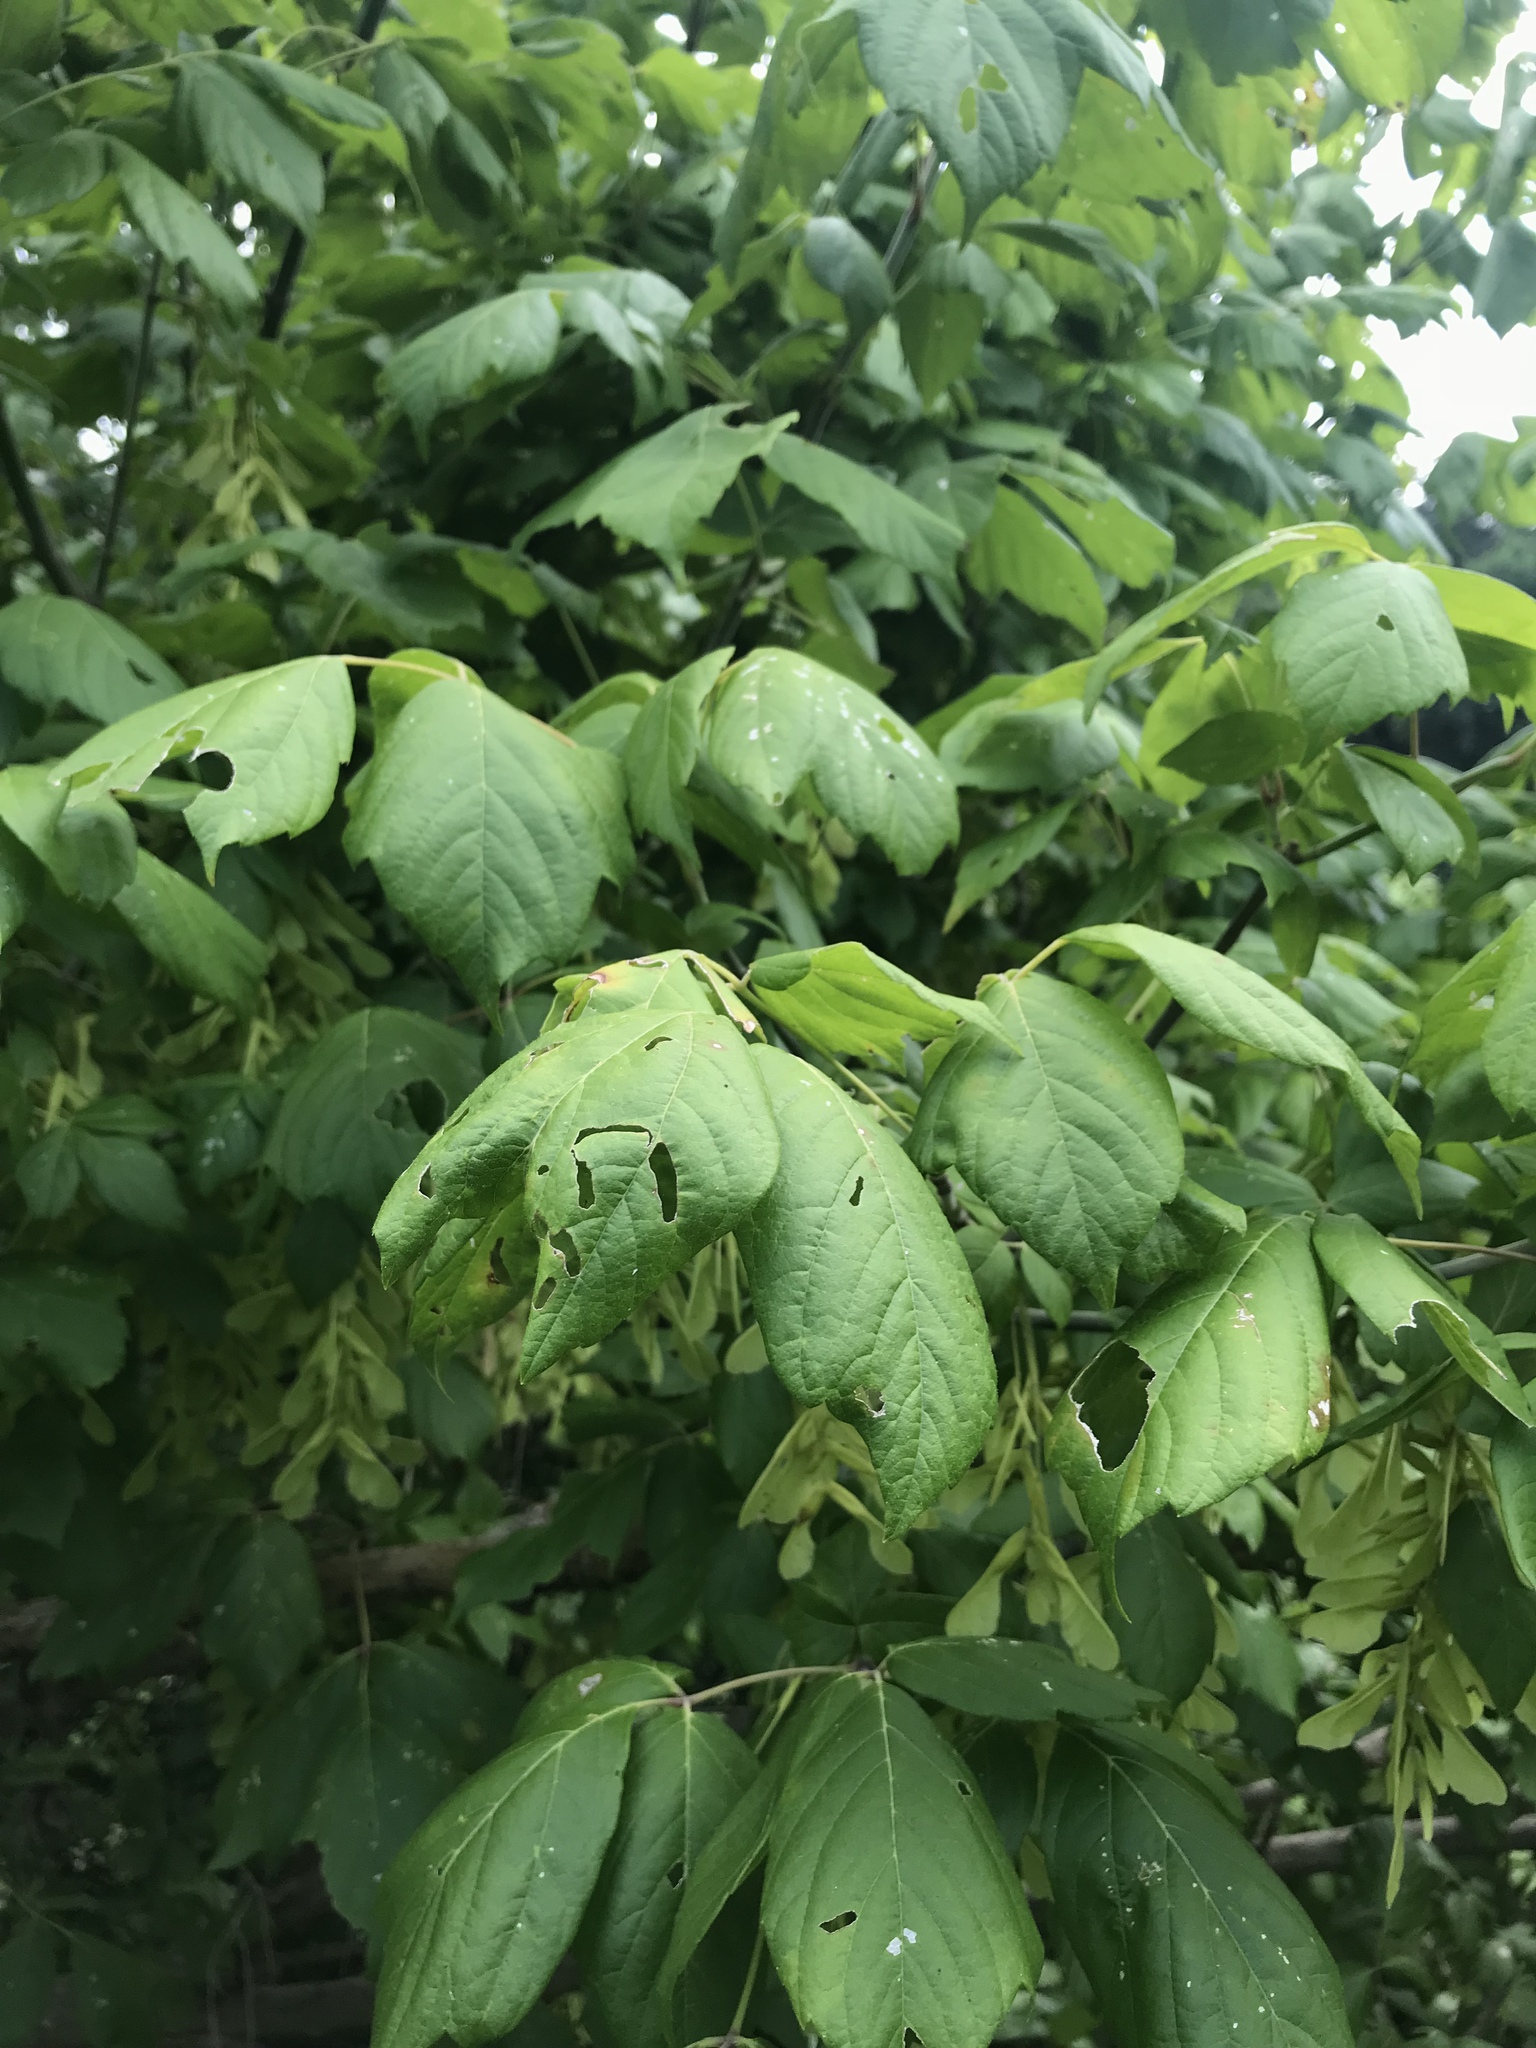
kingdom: Plantae
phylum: Tracheophyta
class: Magnoliopsida
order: Sapindales
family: Sapindaceae
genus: Acer
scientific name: Acer negundo
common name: Ashleaf maple
